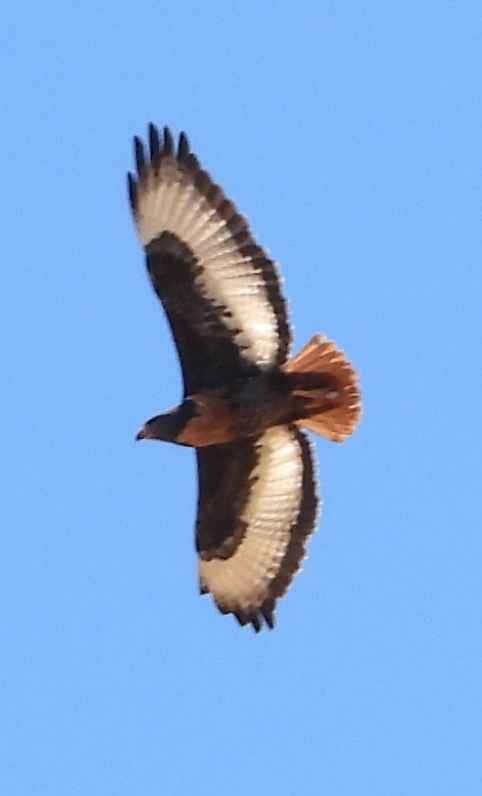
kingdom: Animalia
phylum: Chordata
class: Aves
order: Accipitriformes
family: Accipitridae
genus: Buteo
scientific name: Buteo rufofuscus
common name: Jackal buzzard
